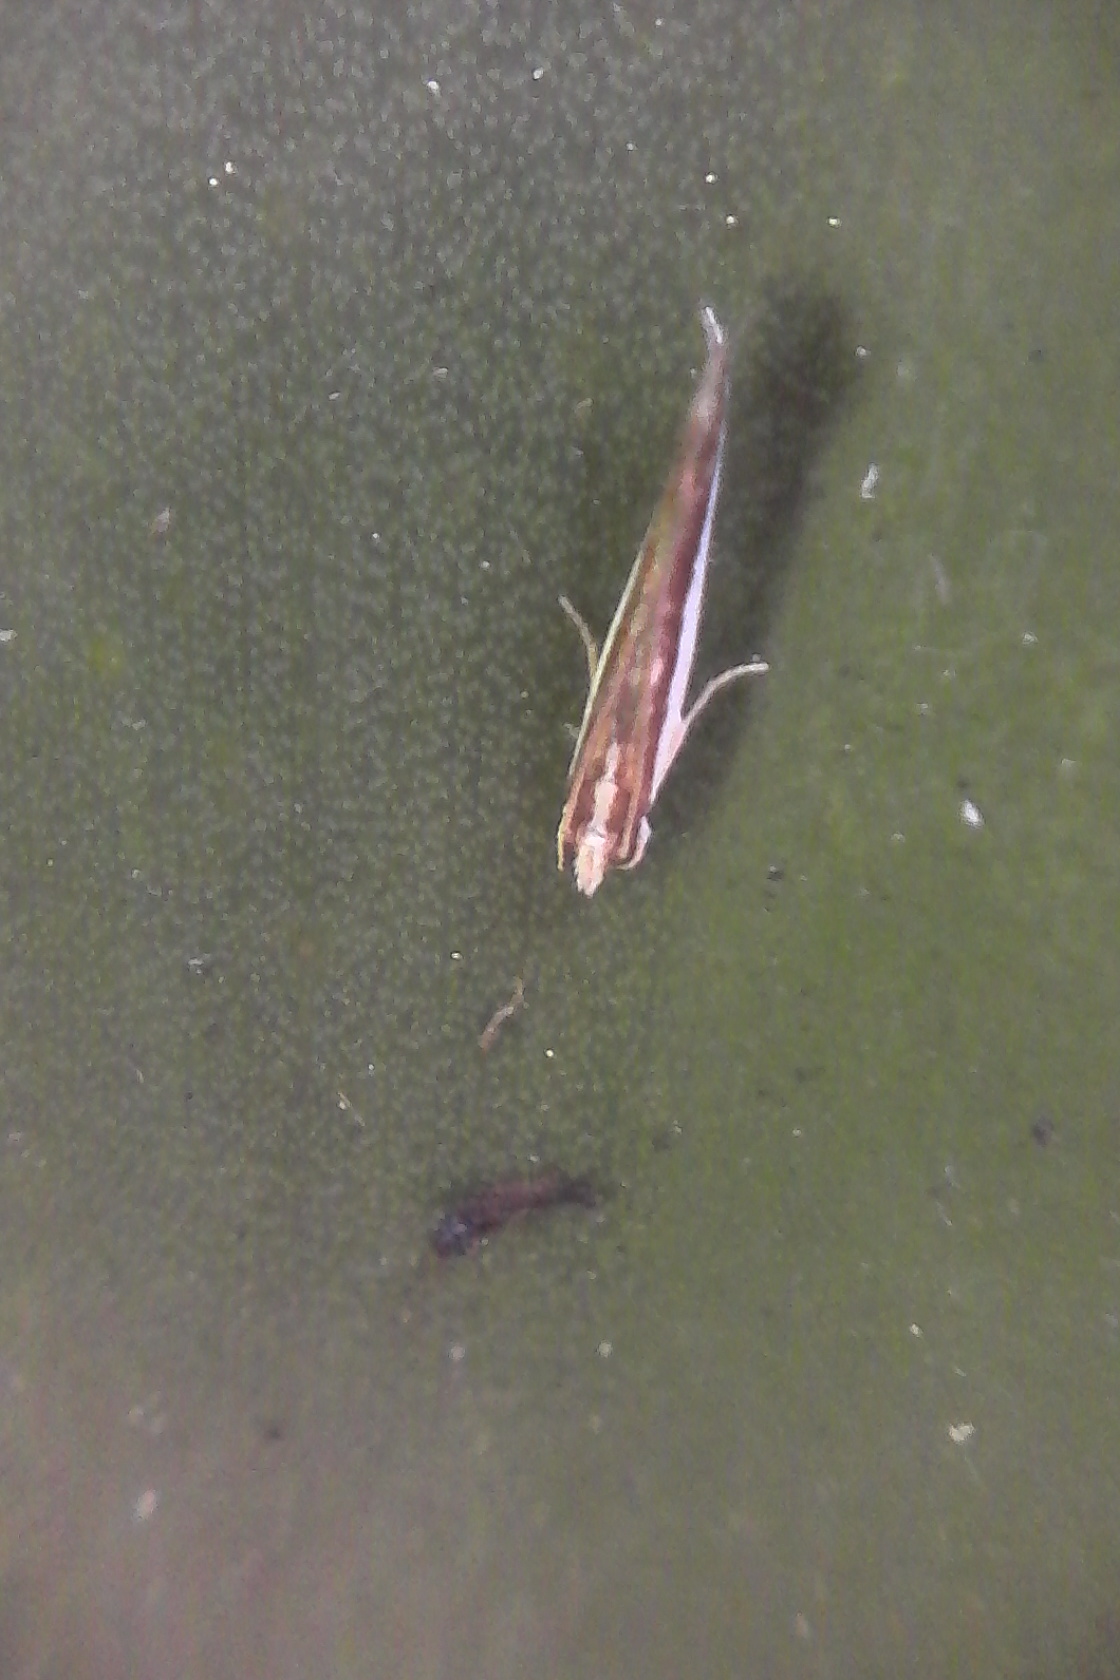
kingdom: Animalia
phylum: Arthropoda
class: Insecta
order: Lepidoptera
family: Tineidae
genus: Erechthias
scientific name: Erechthias chionodira
